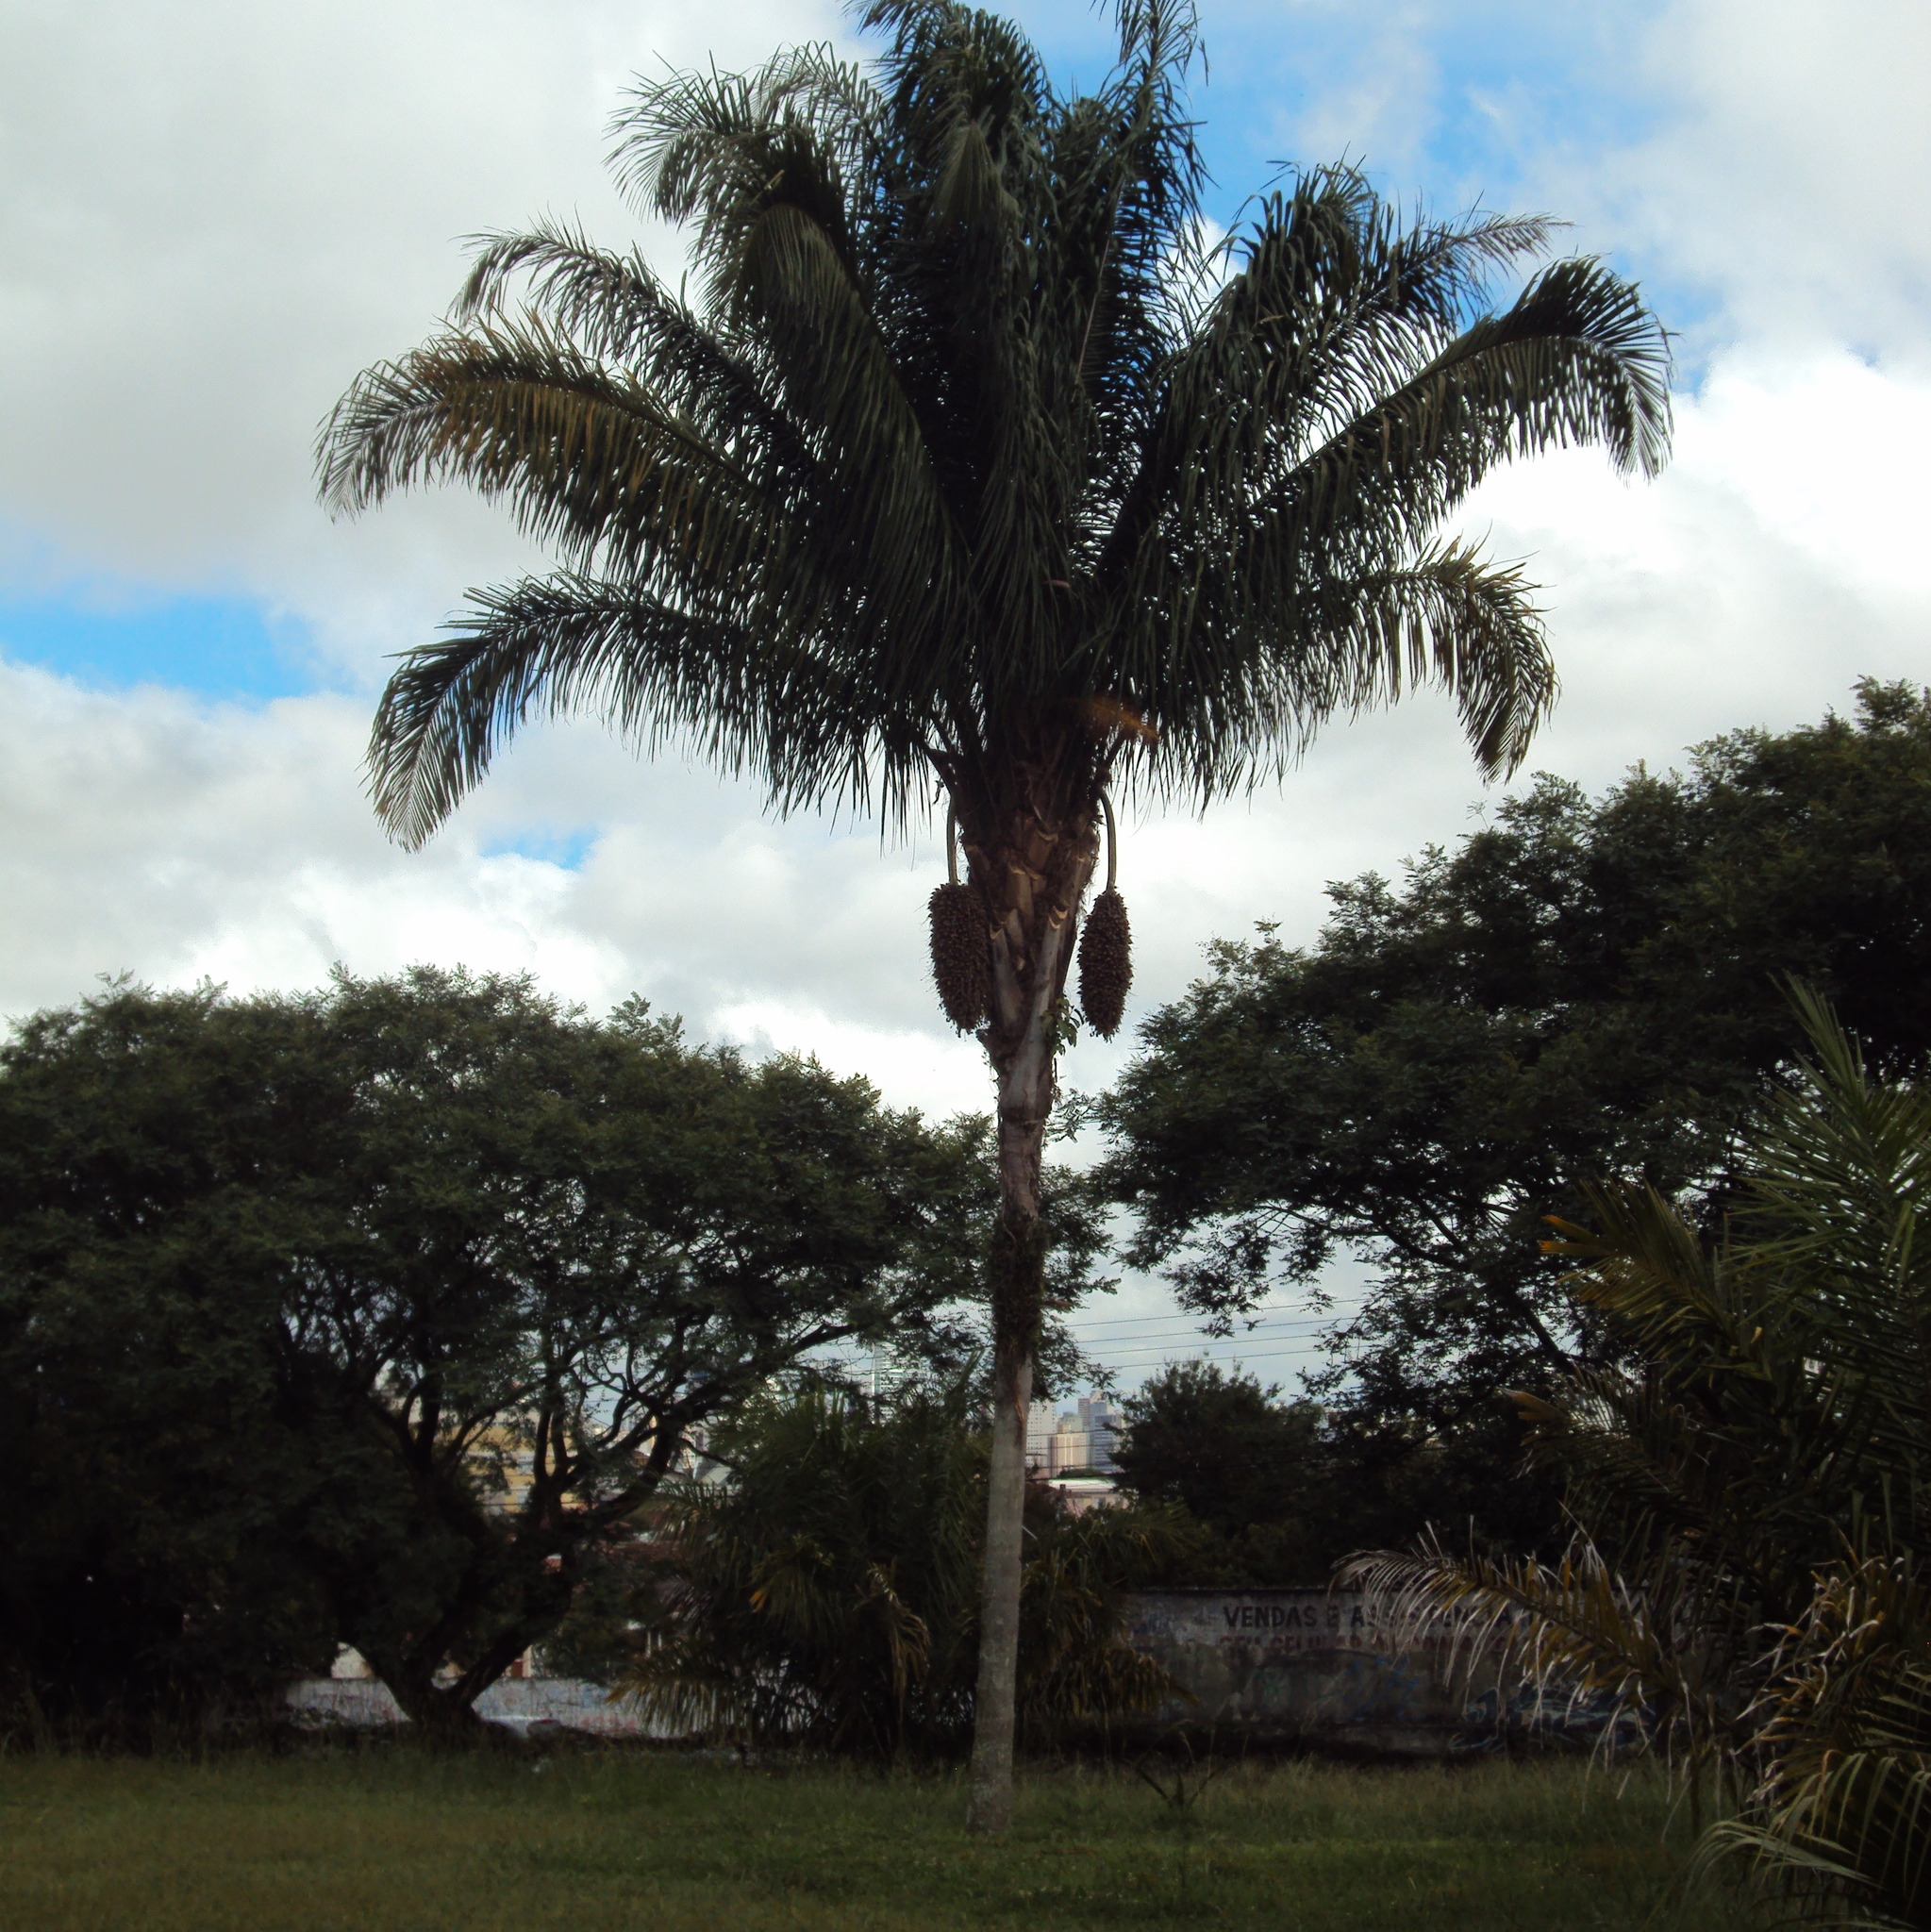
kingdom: Plantae
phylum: Tracheophyta
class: Liliopsida
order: Arecales
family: Arecaceae
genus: Attalea
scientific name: Attalea dubia
